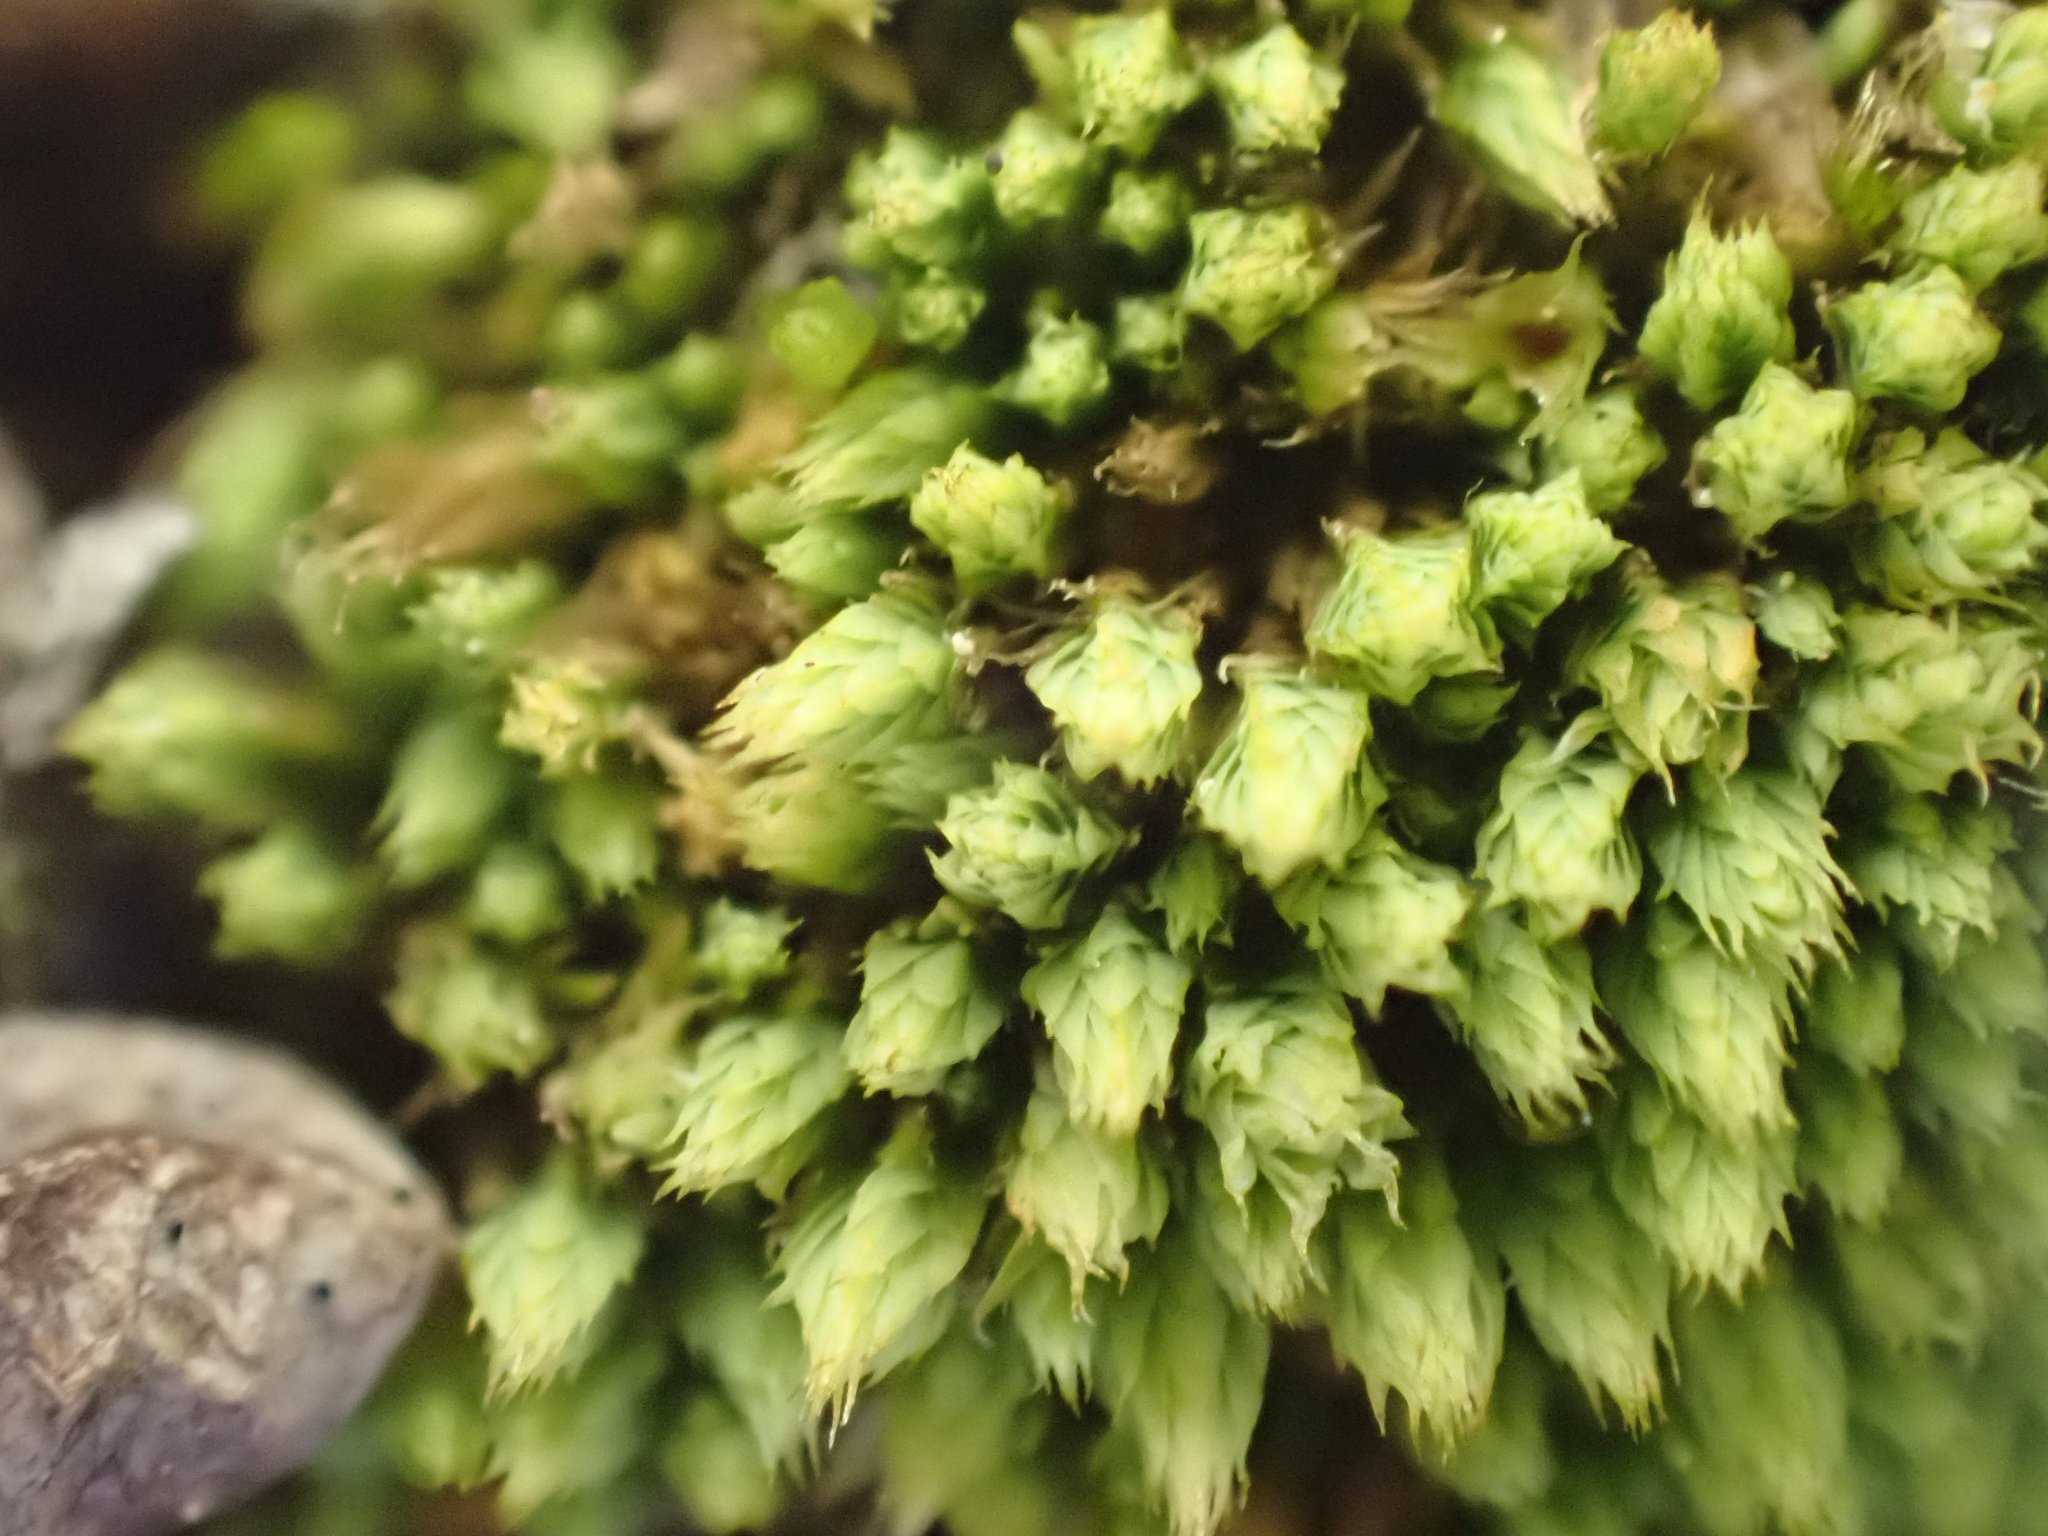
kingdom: Plantae
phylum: Bryophyta
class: Bryopsida
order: Bartramiales
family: Bartramiaceae
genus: Conostomum
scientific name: Conostomum tetragonum
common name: Helmet moss
